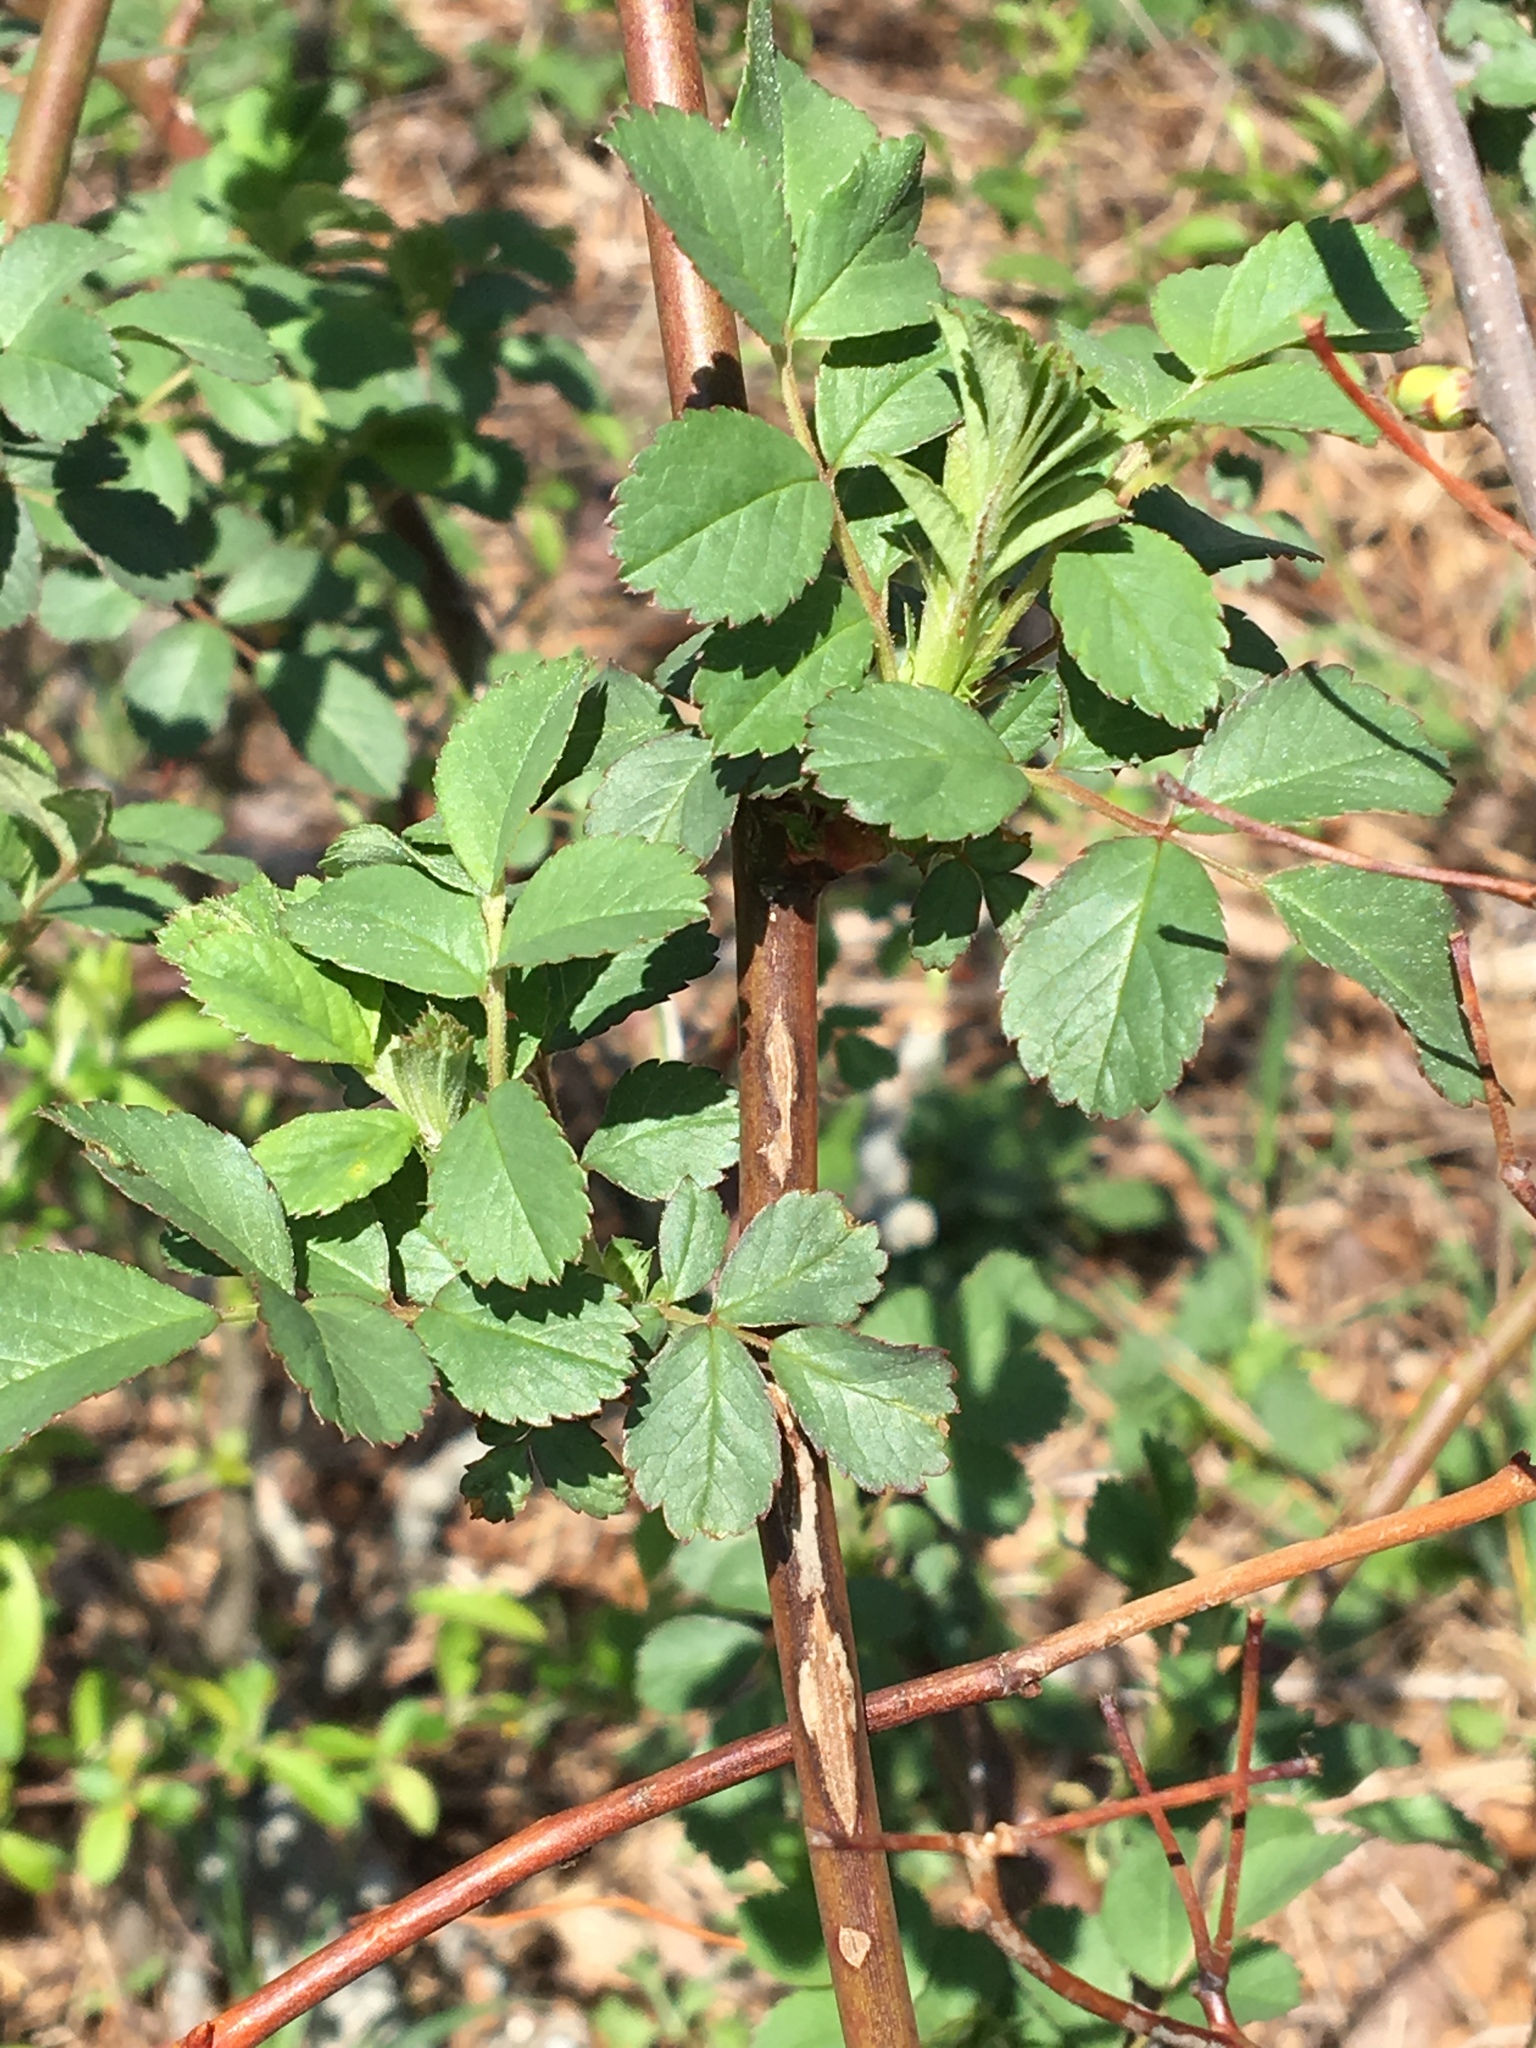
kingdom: Plantae
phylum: Tracheophyta
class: Magnoliopsida
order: Rosales
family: Rosaceae
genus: Rosa
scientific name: Rosa multiflora
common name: Multiflora rose
